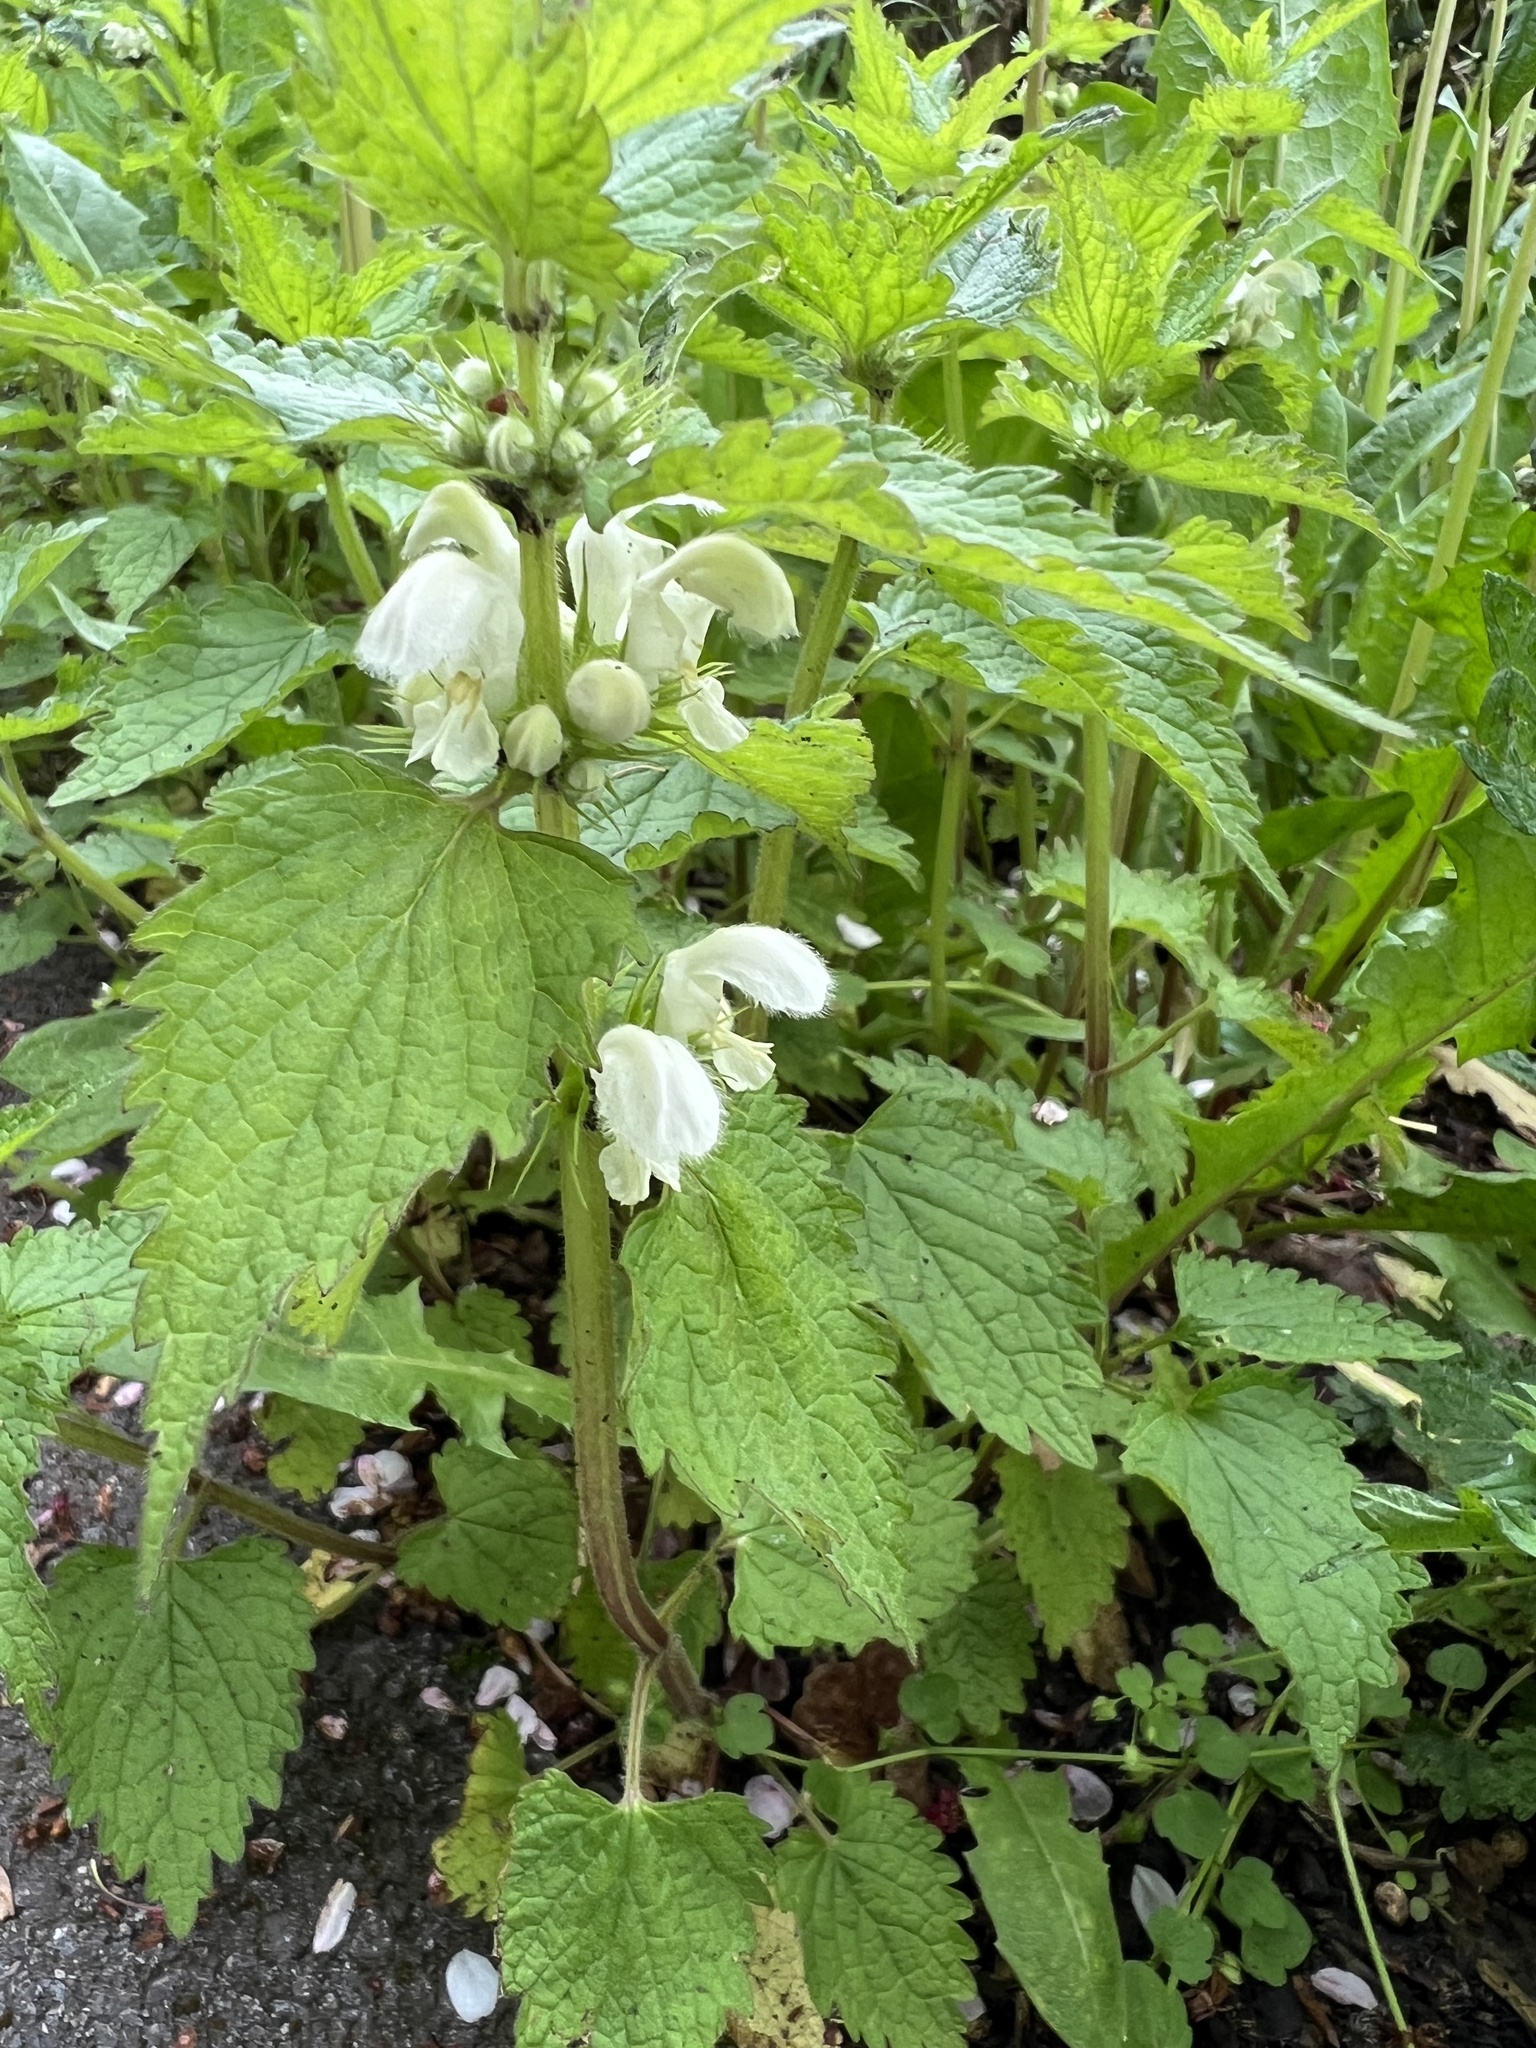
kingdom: Plantae
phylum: Tracheophyta
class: Magnoliopsida
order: Lamiales
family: Lamiaceae
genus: Lamium
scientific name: Lamium album
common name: White dead-nettle
